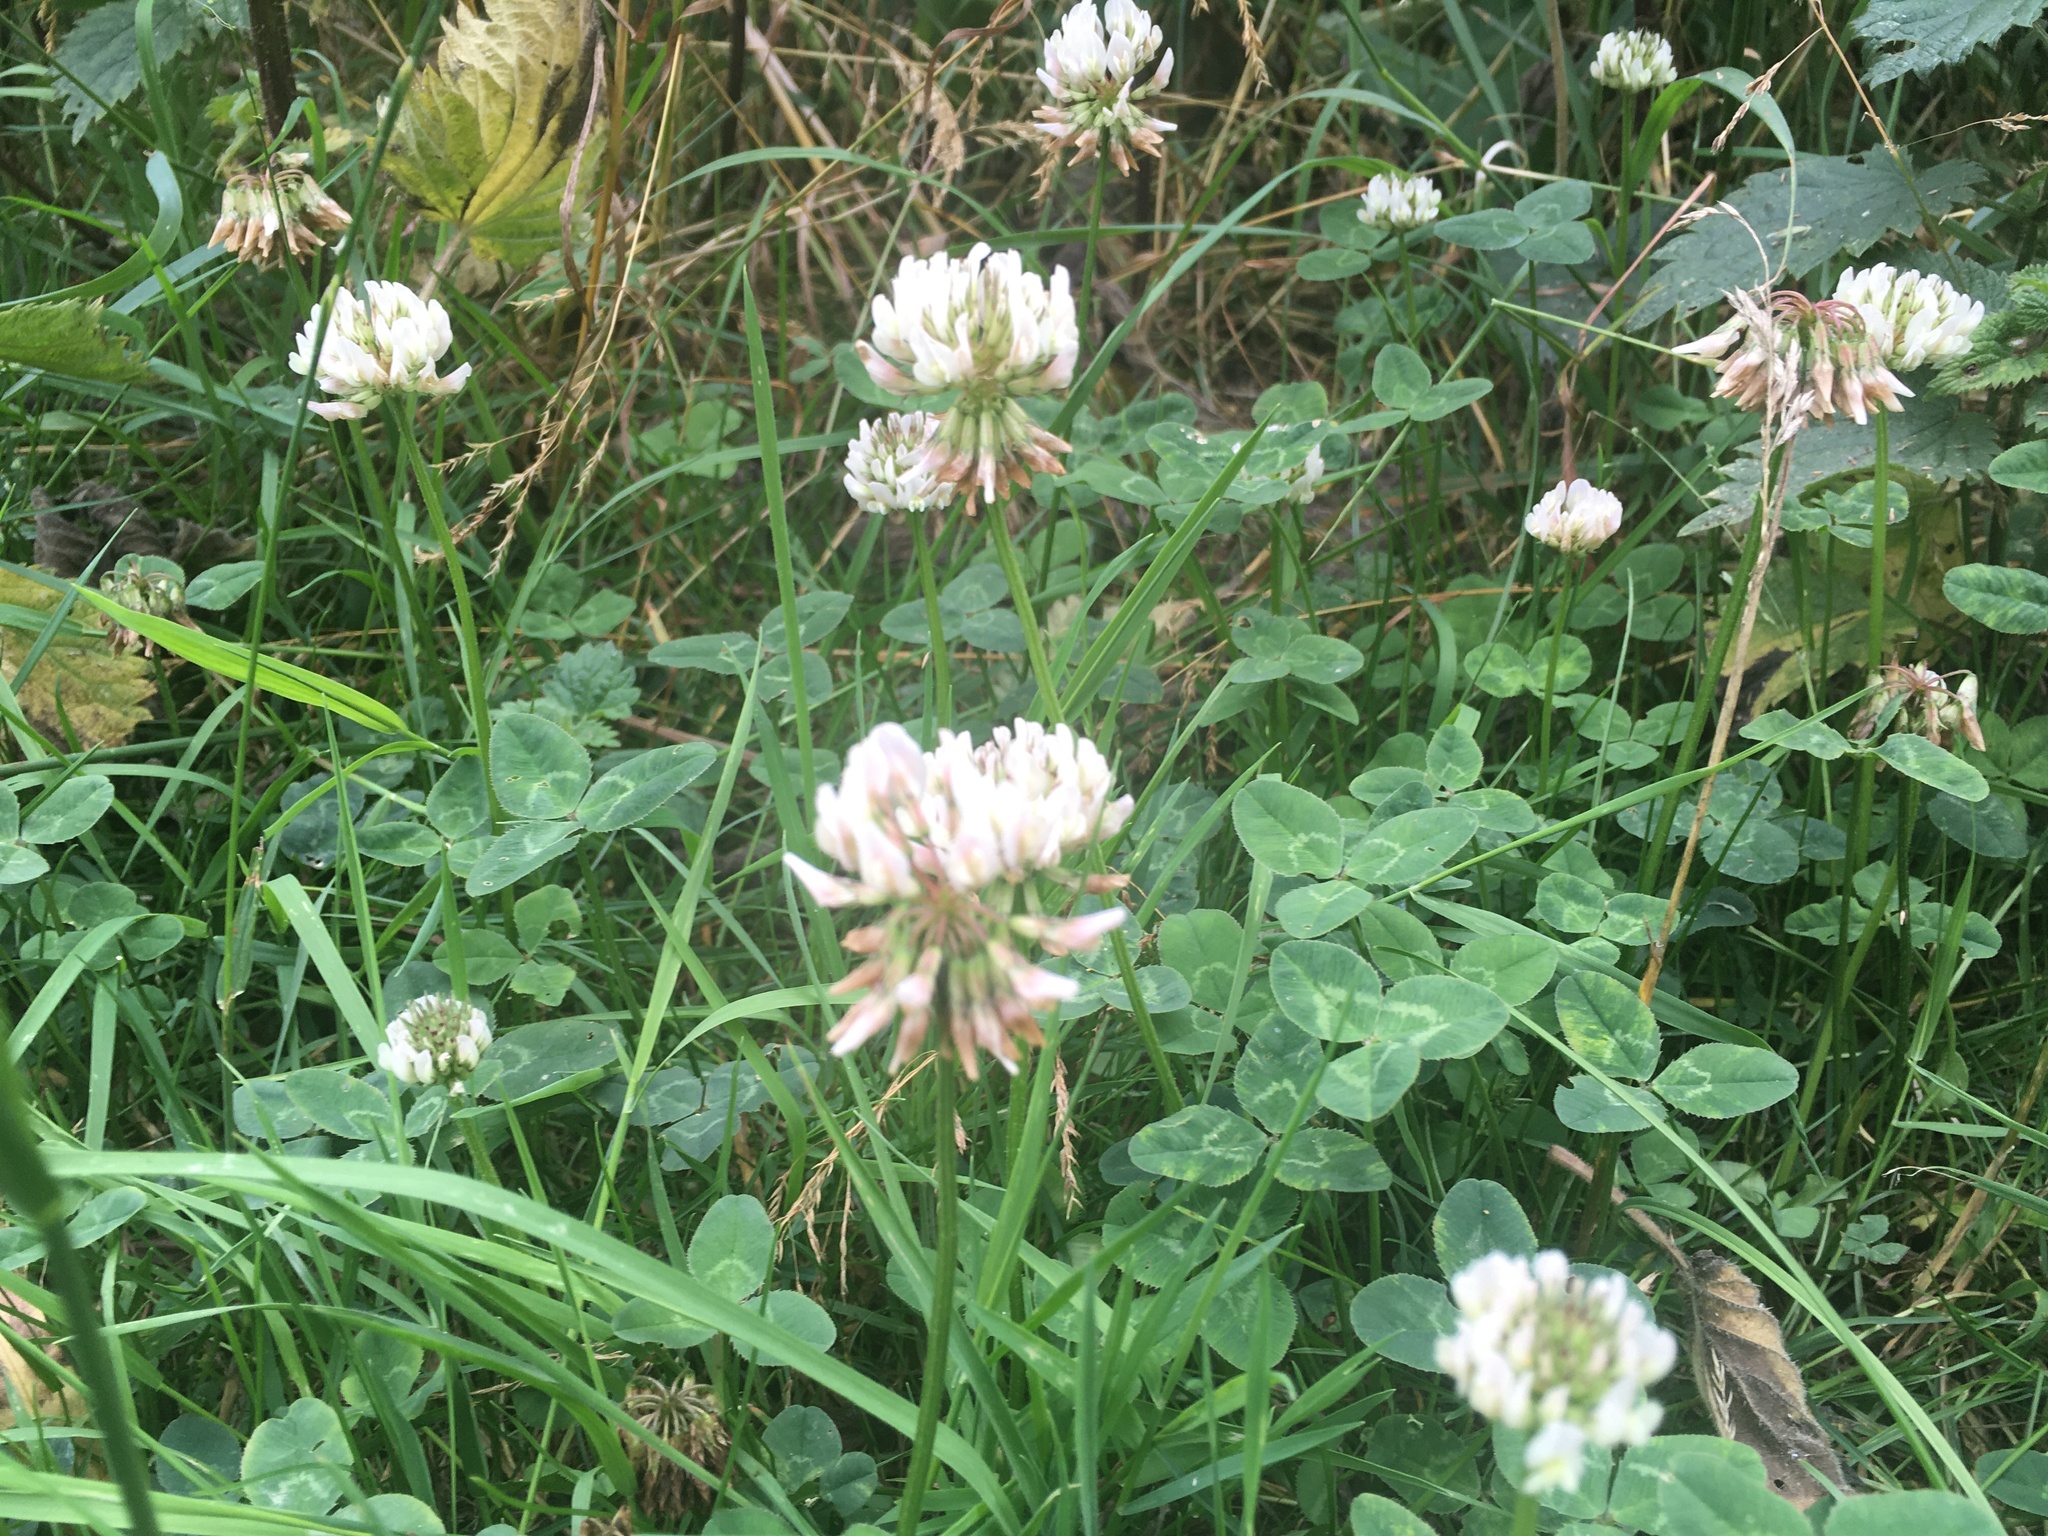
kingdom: Plantae
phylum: Tracheophyta
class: Magnoliopsida
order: Fabales
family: Fabaceae
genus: Trifolium
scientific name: Trifolium repens
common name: White clover
